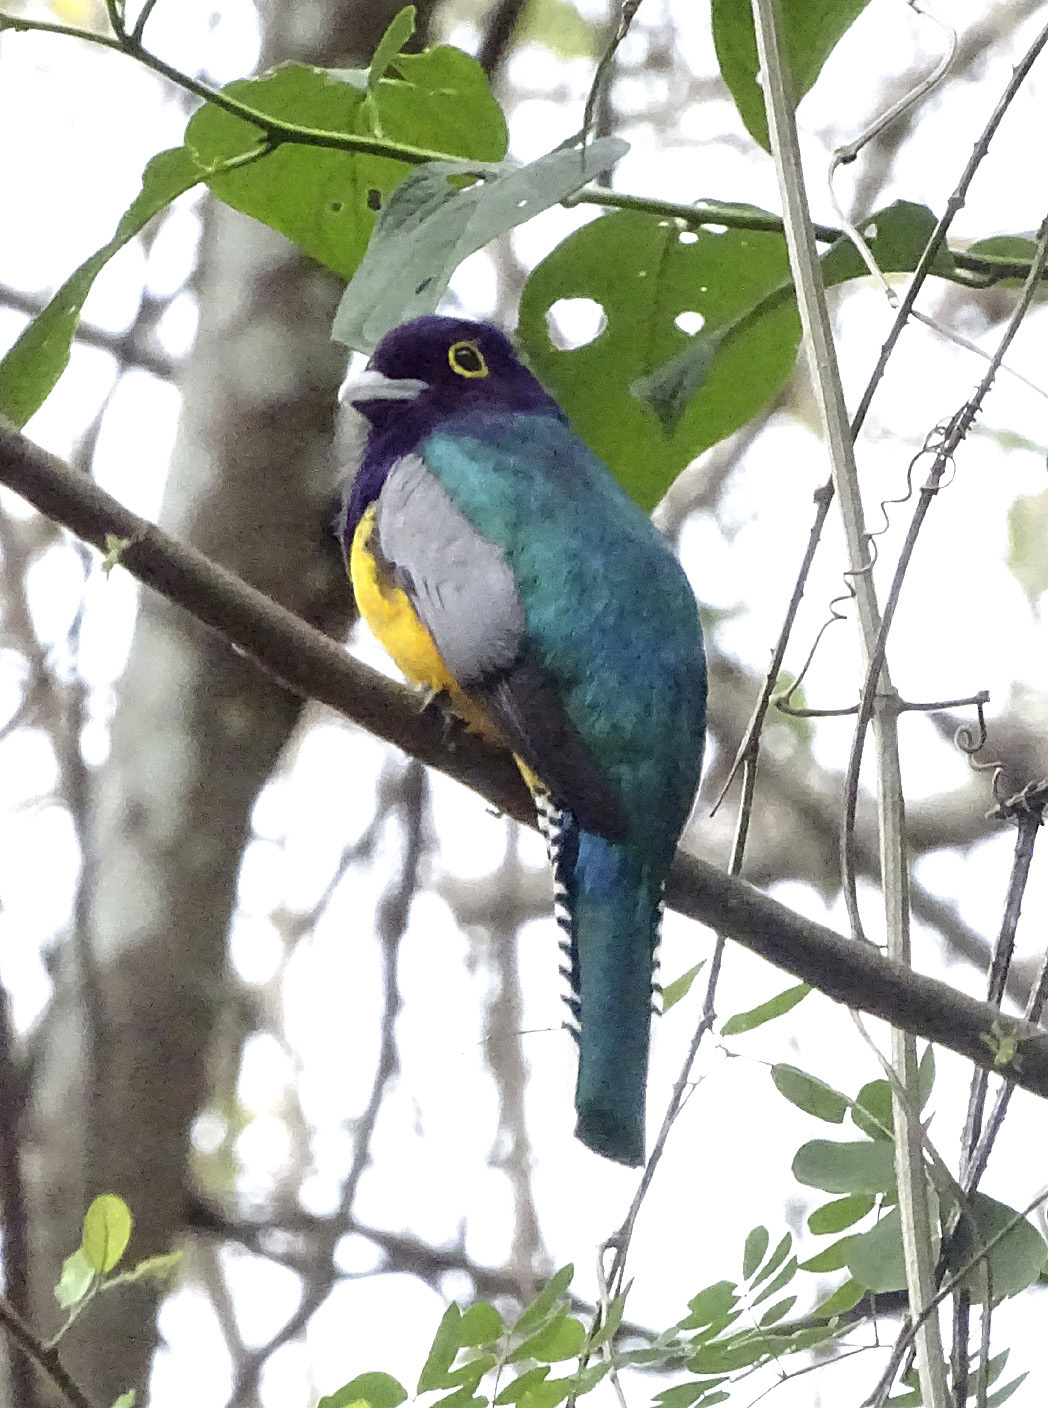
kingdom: Animalia
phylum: Chordata
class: Aves
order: Trogoniformes
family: Trogonidae
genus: Trogon
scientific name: Trogon caligatus
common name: Gartered trogon
